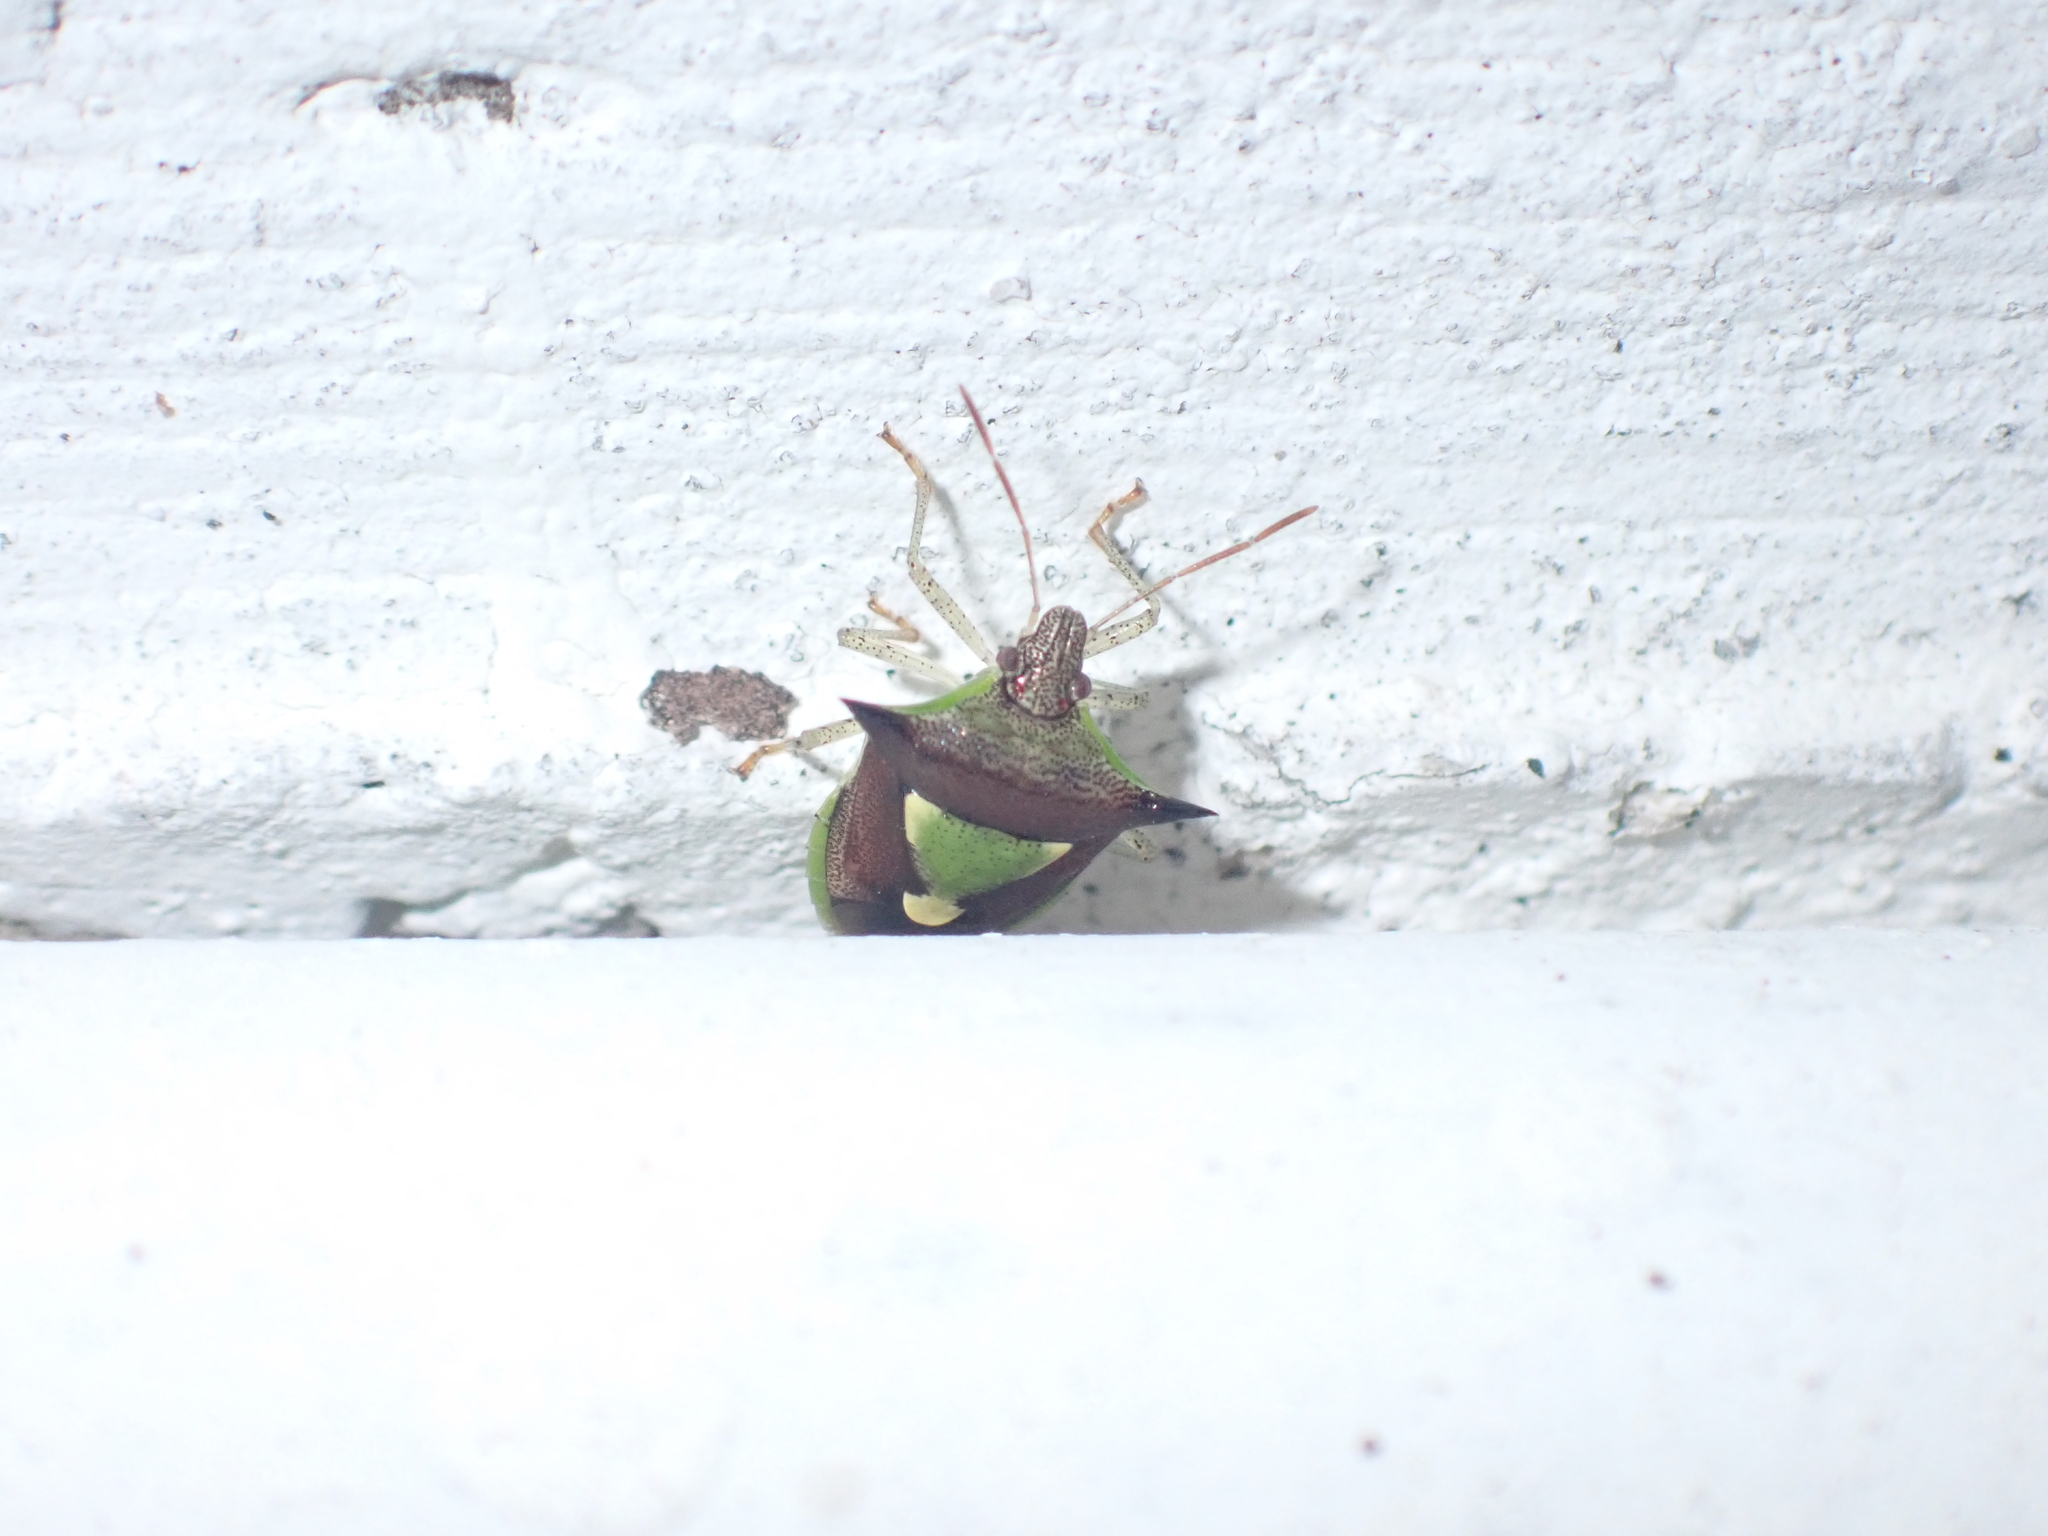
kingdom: Animalia
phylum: Arthropoda
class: Insecta
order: Hemiptera
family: Pentatomidae
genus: Carbula
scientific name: Carbula scutellata
